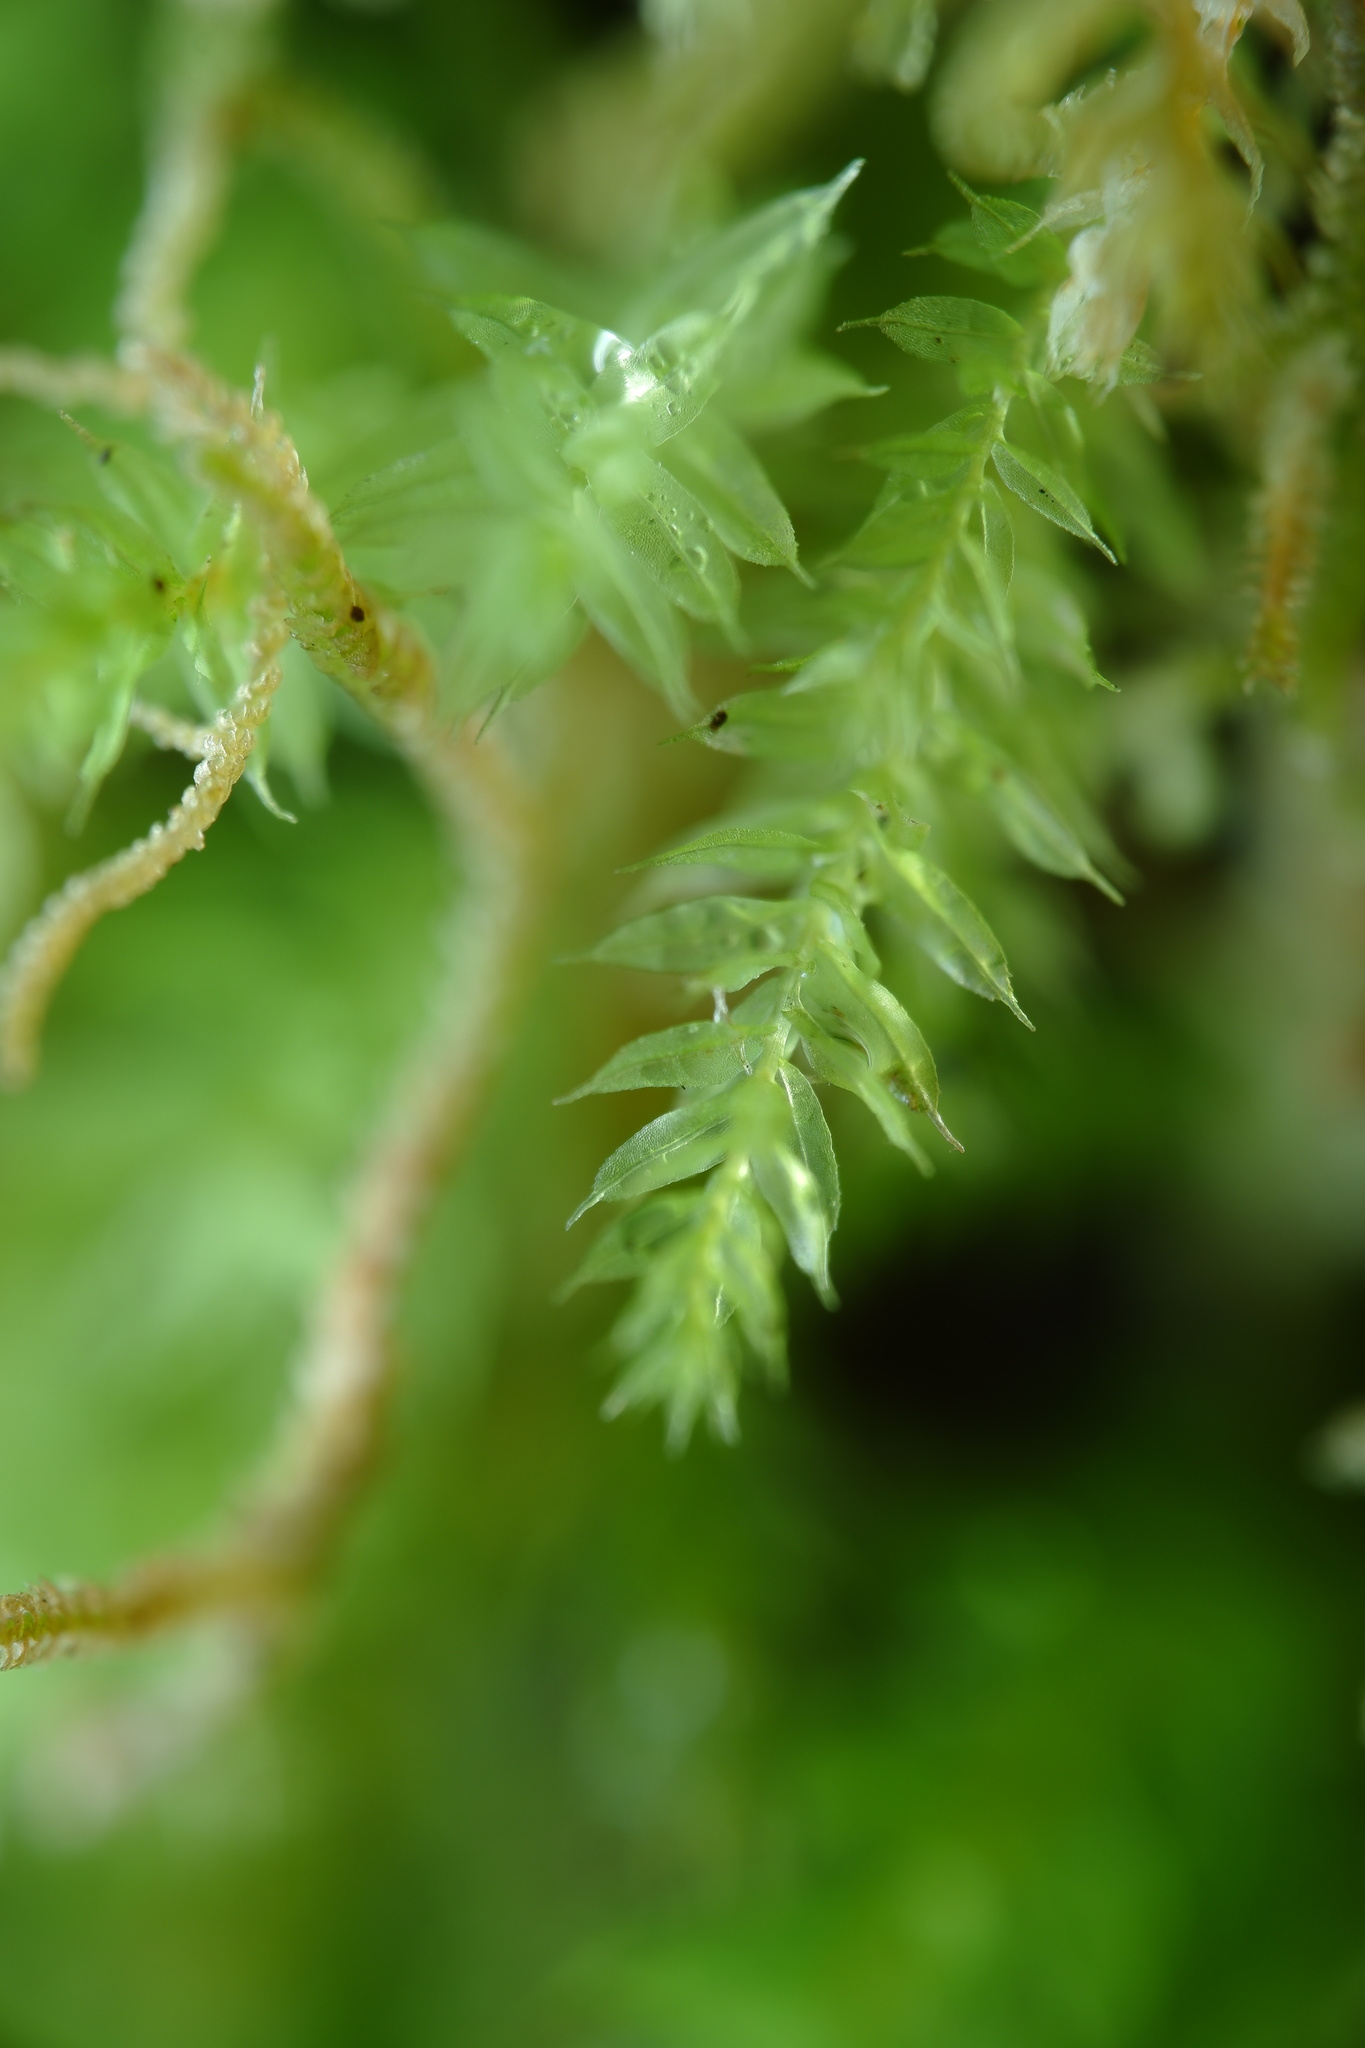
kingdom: Plantae
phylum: Bryophyta
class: Bryopsida
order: Orthodontiales
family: Orthodontiaceae
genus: Leptotheca
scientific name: Leptotheca gaudichaudii
